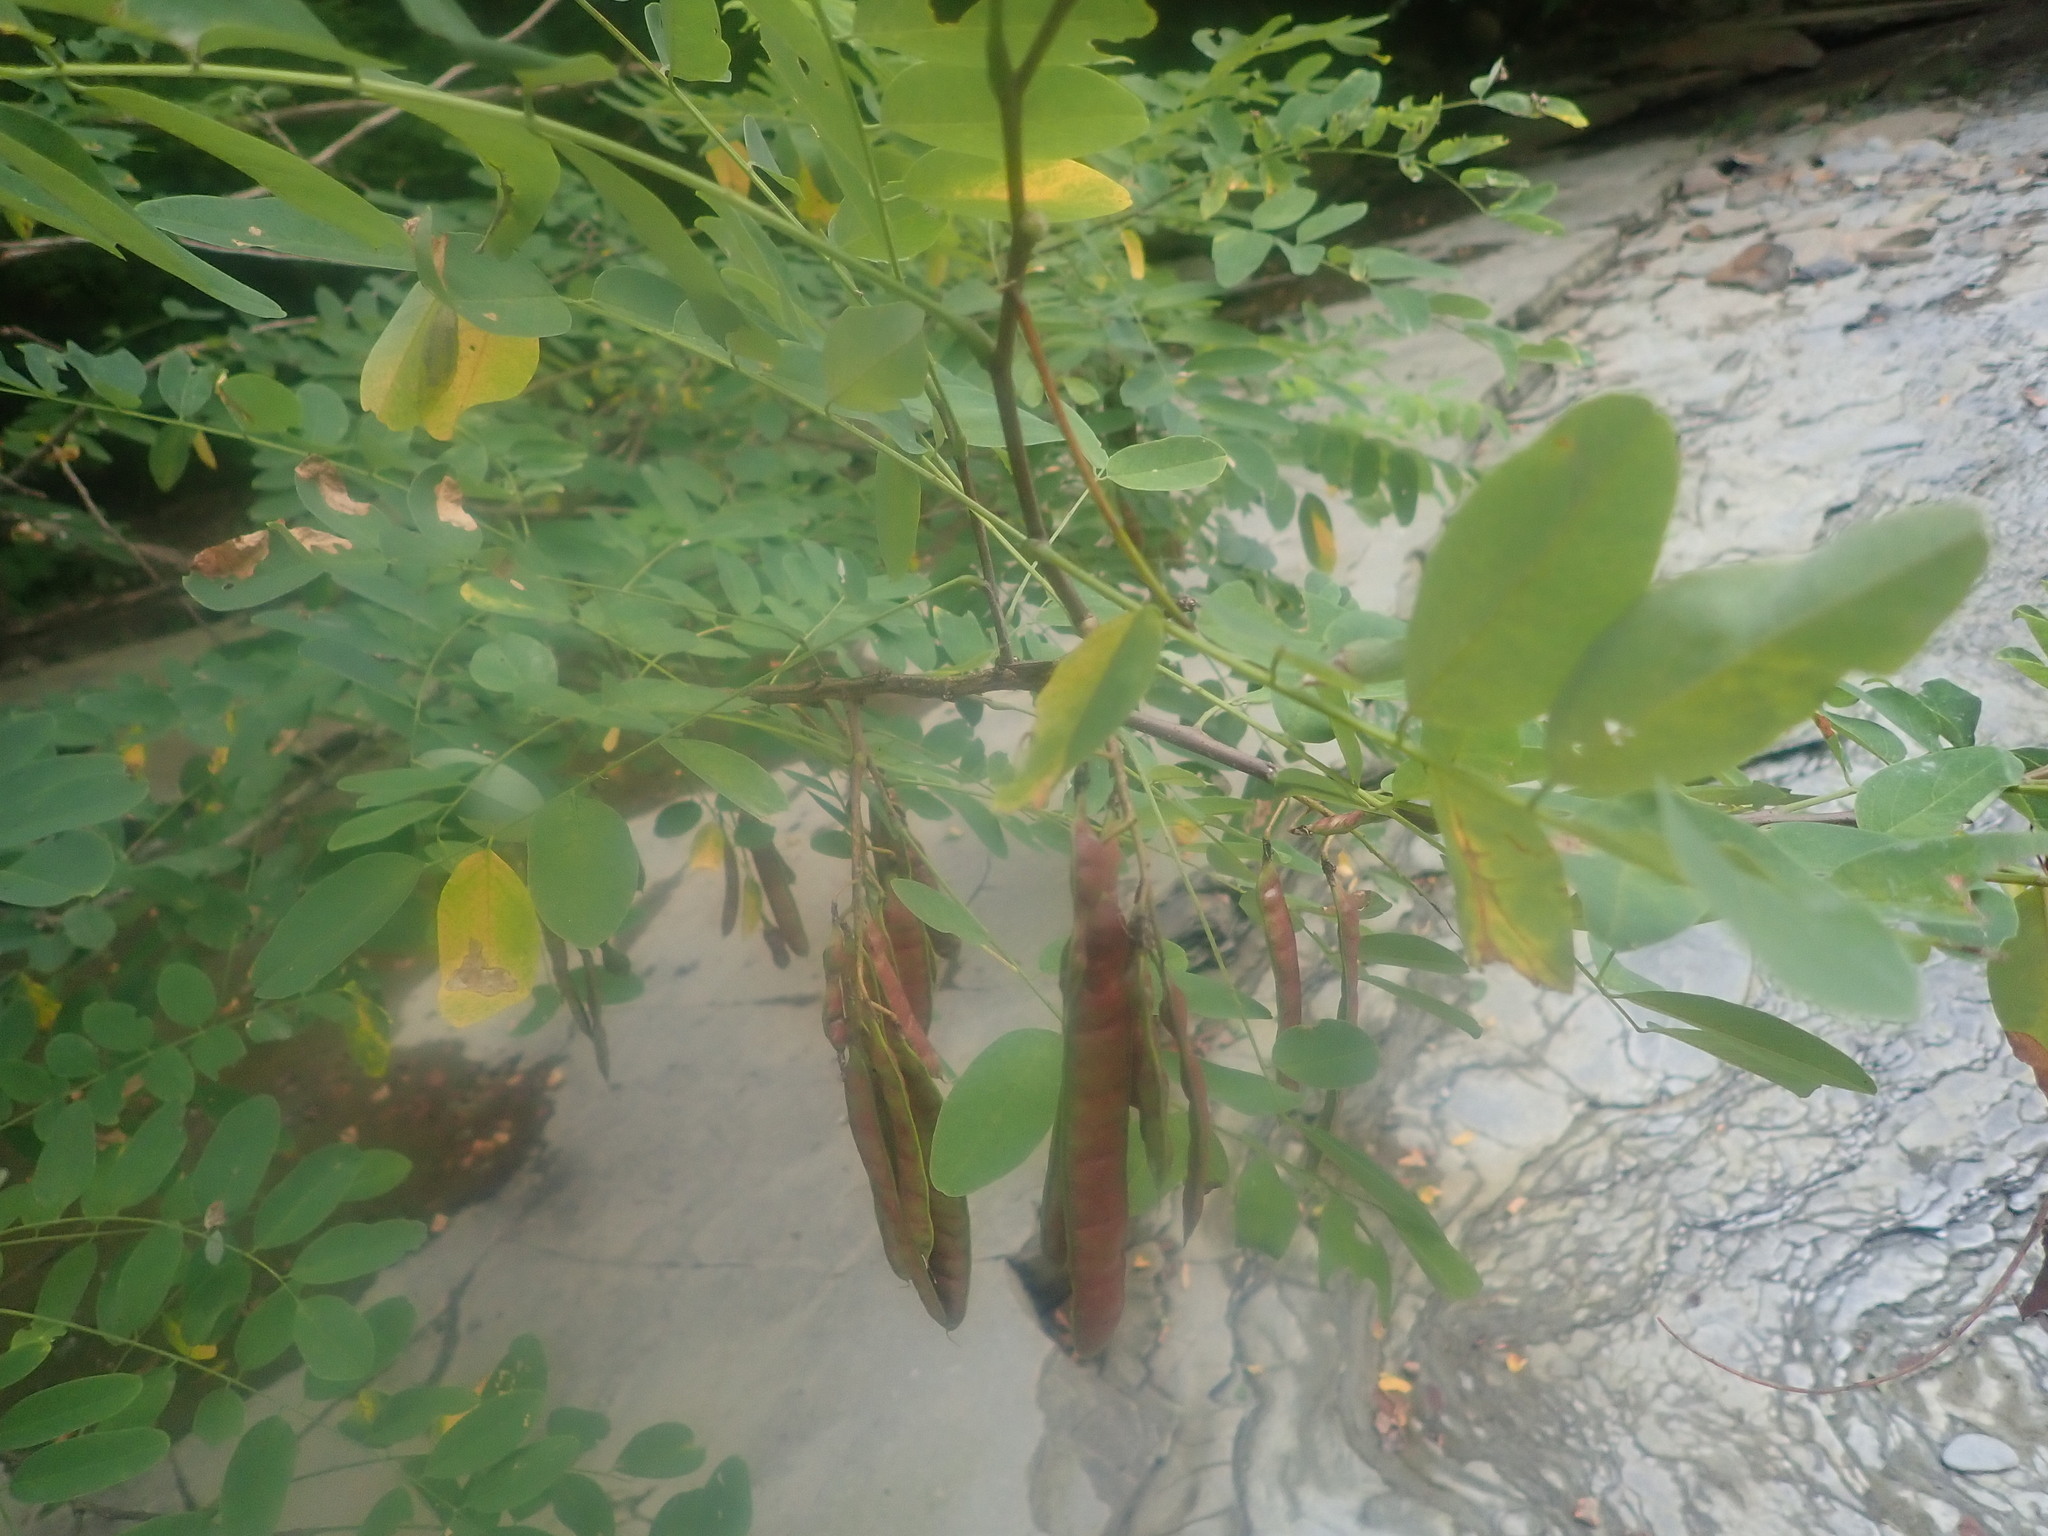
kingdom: Plantae
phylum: Tracheophyta
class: Magnoliopsida
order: Fabales
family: Fabaceae
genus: Robinia
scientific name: Robinia pseudoacacia
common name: Black locust
